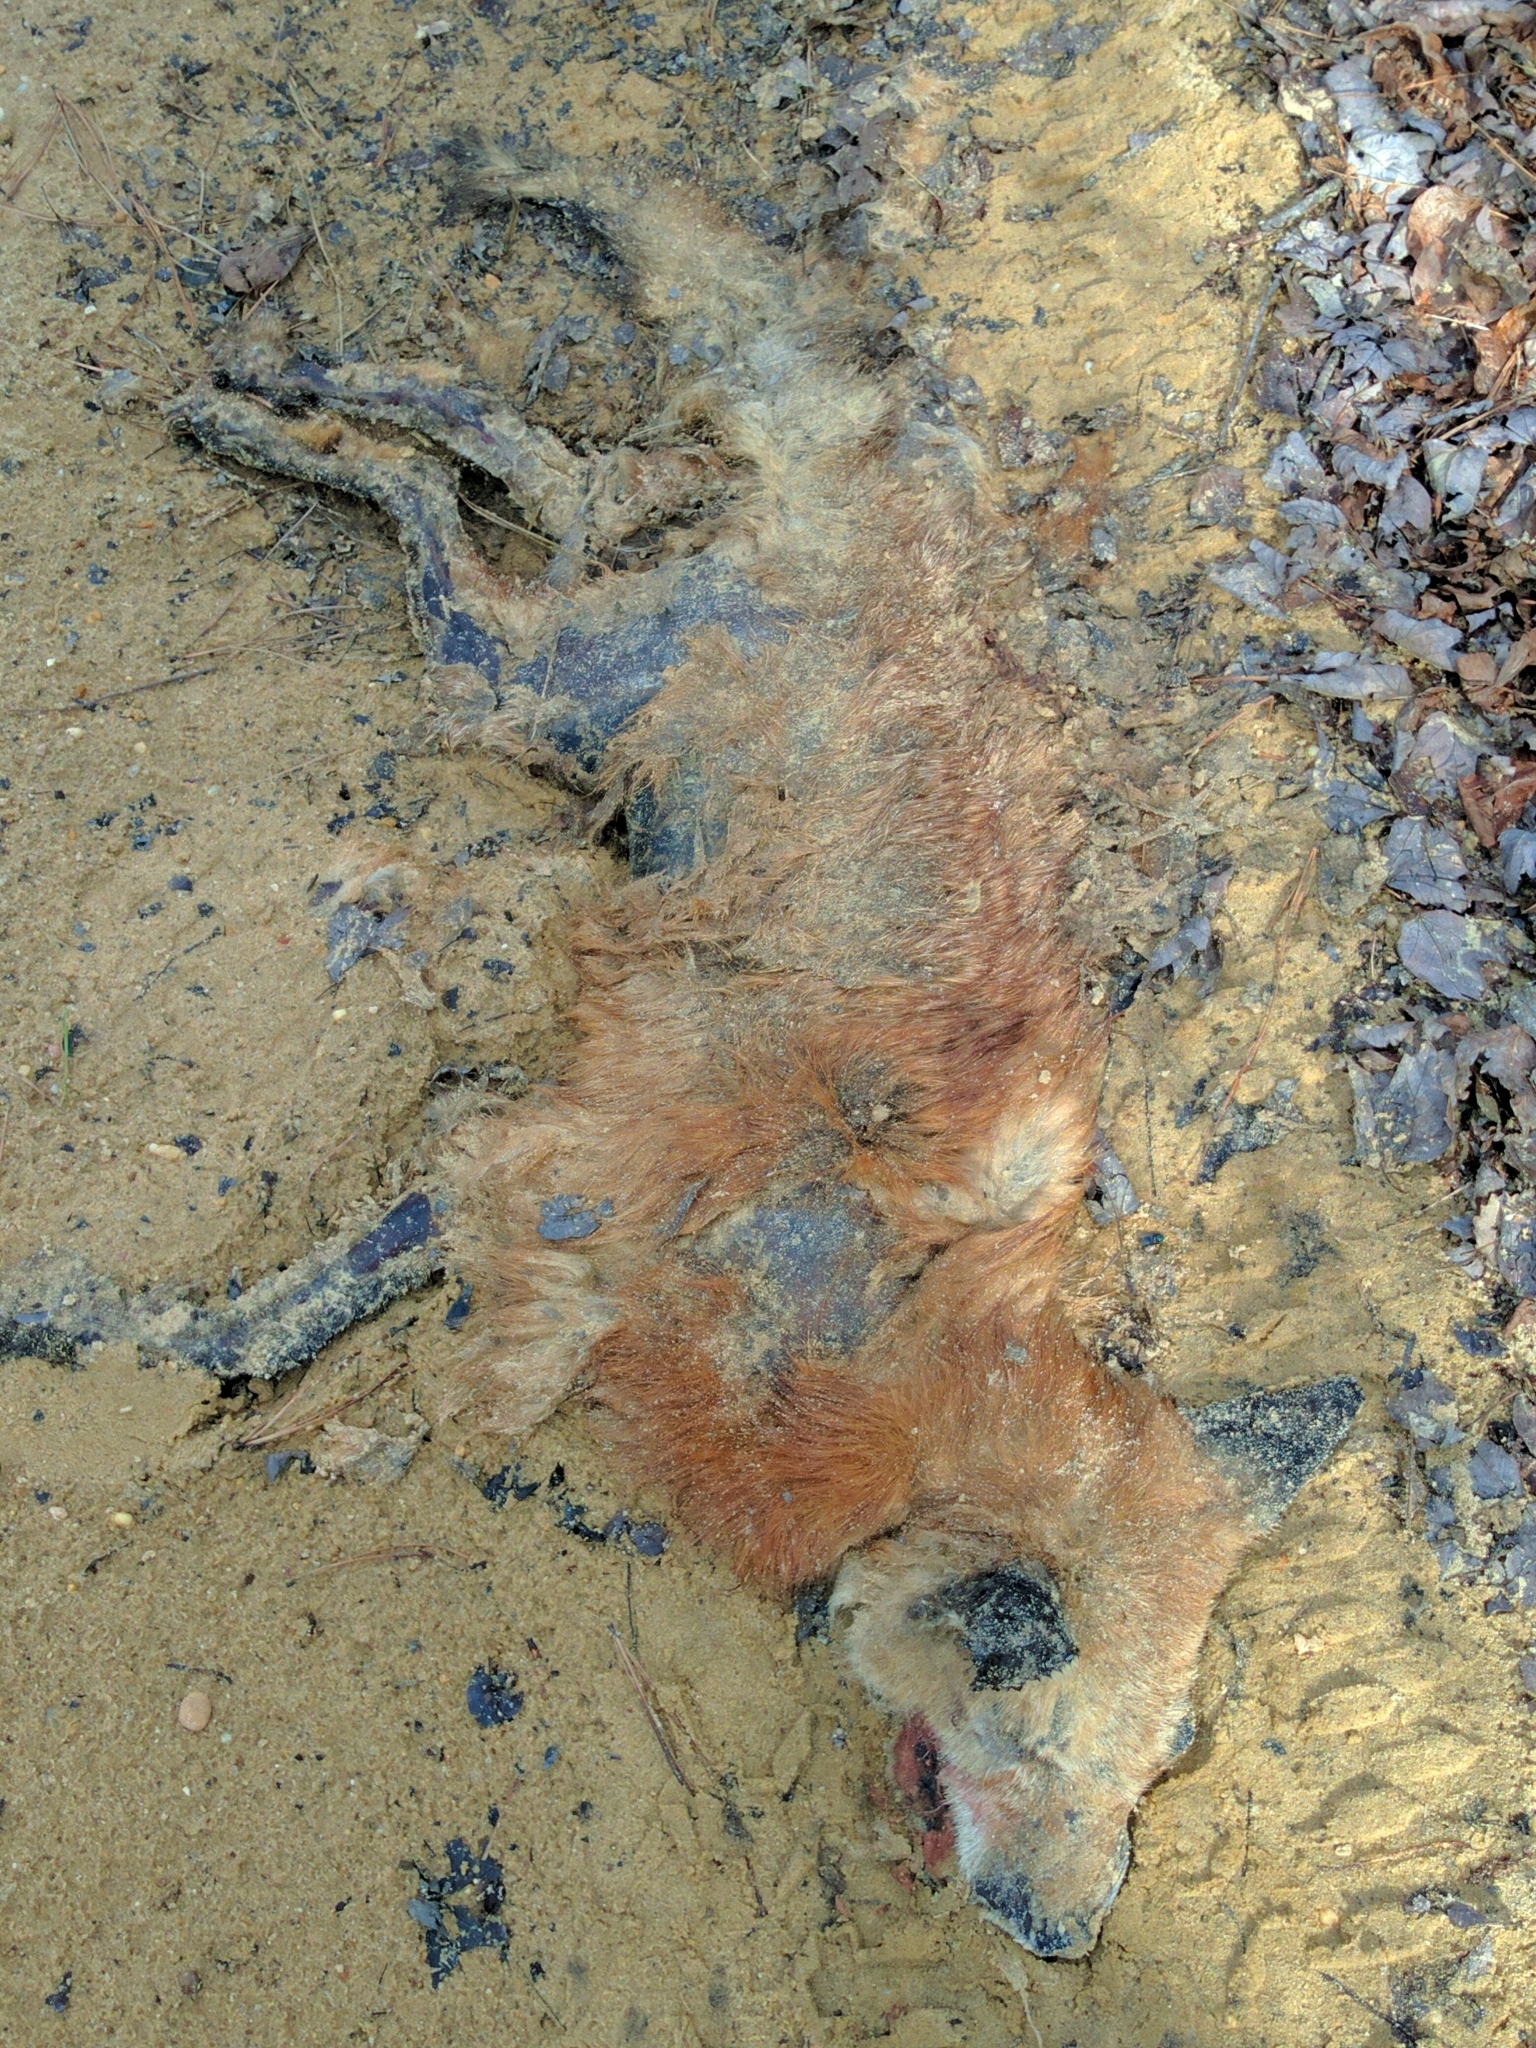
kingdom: Animalia
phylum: Chordata
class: Mammalia
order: Carnivora
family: Canidae
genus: Vulpes
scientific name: Vulpes vulpes
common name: Red fox
